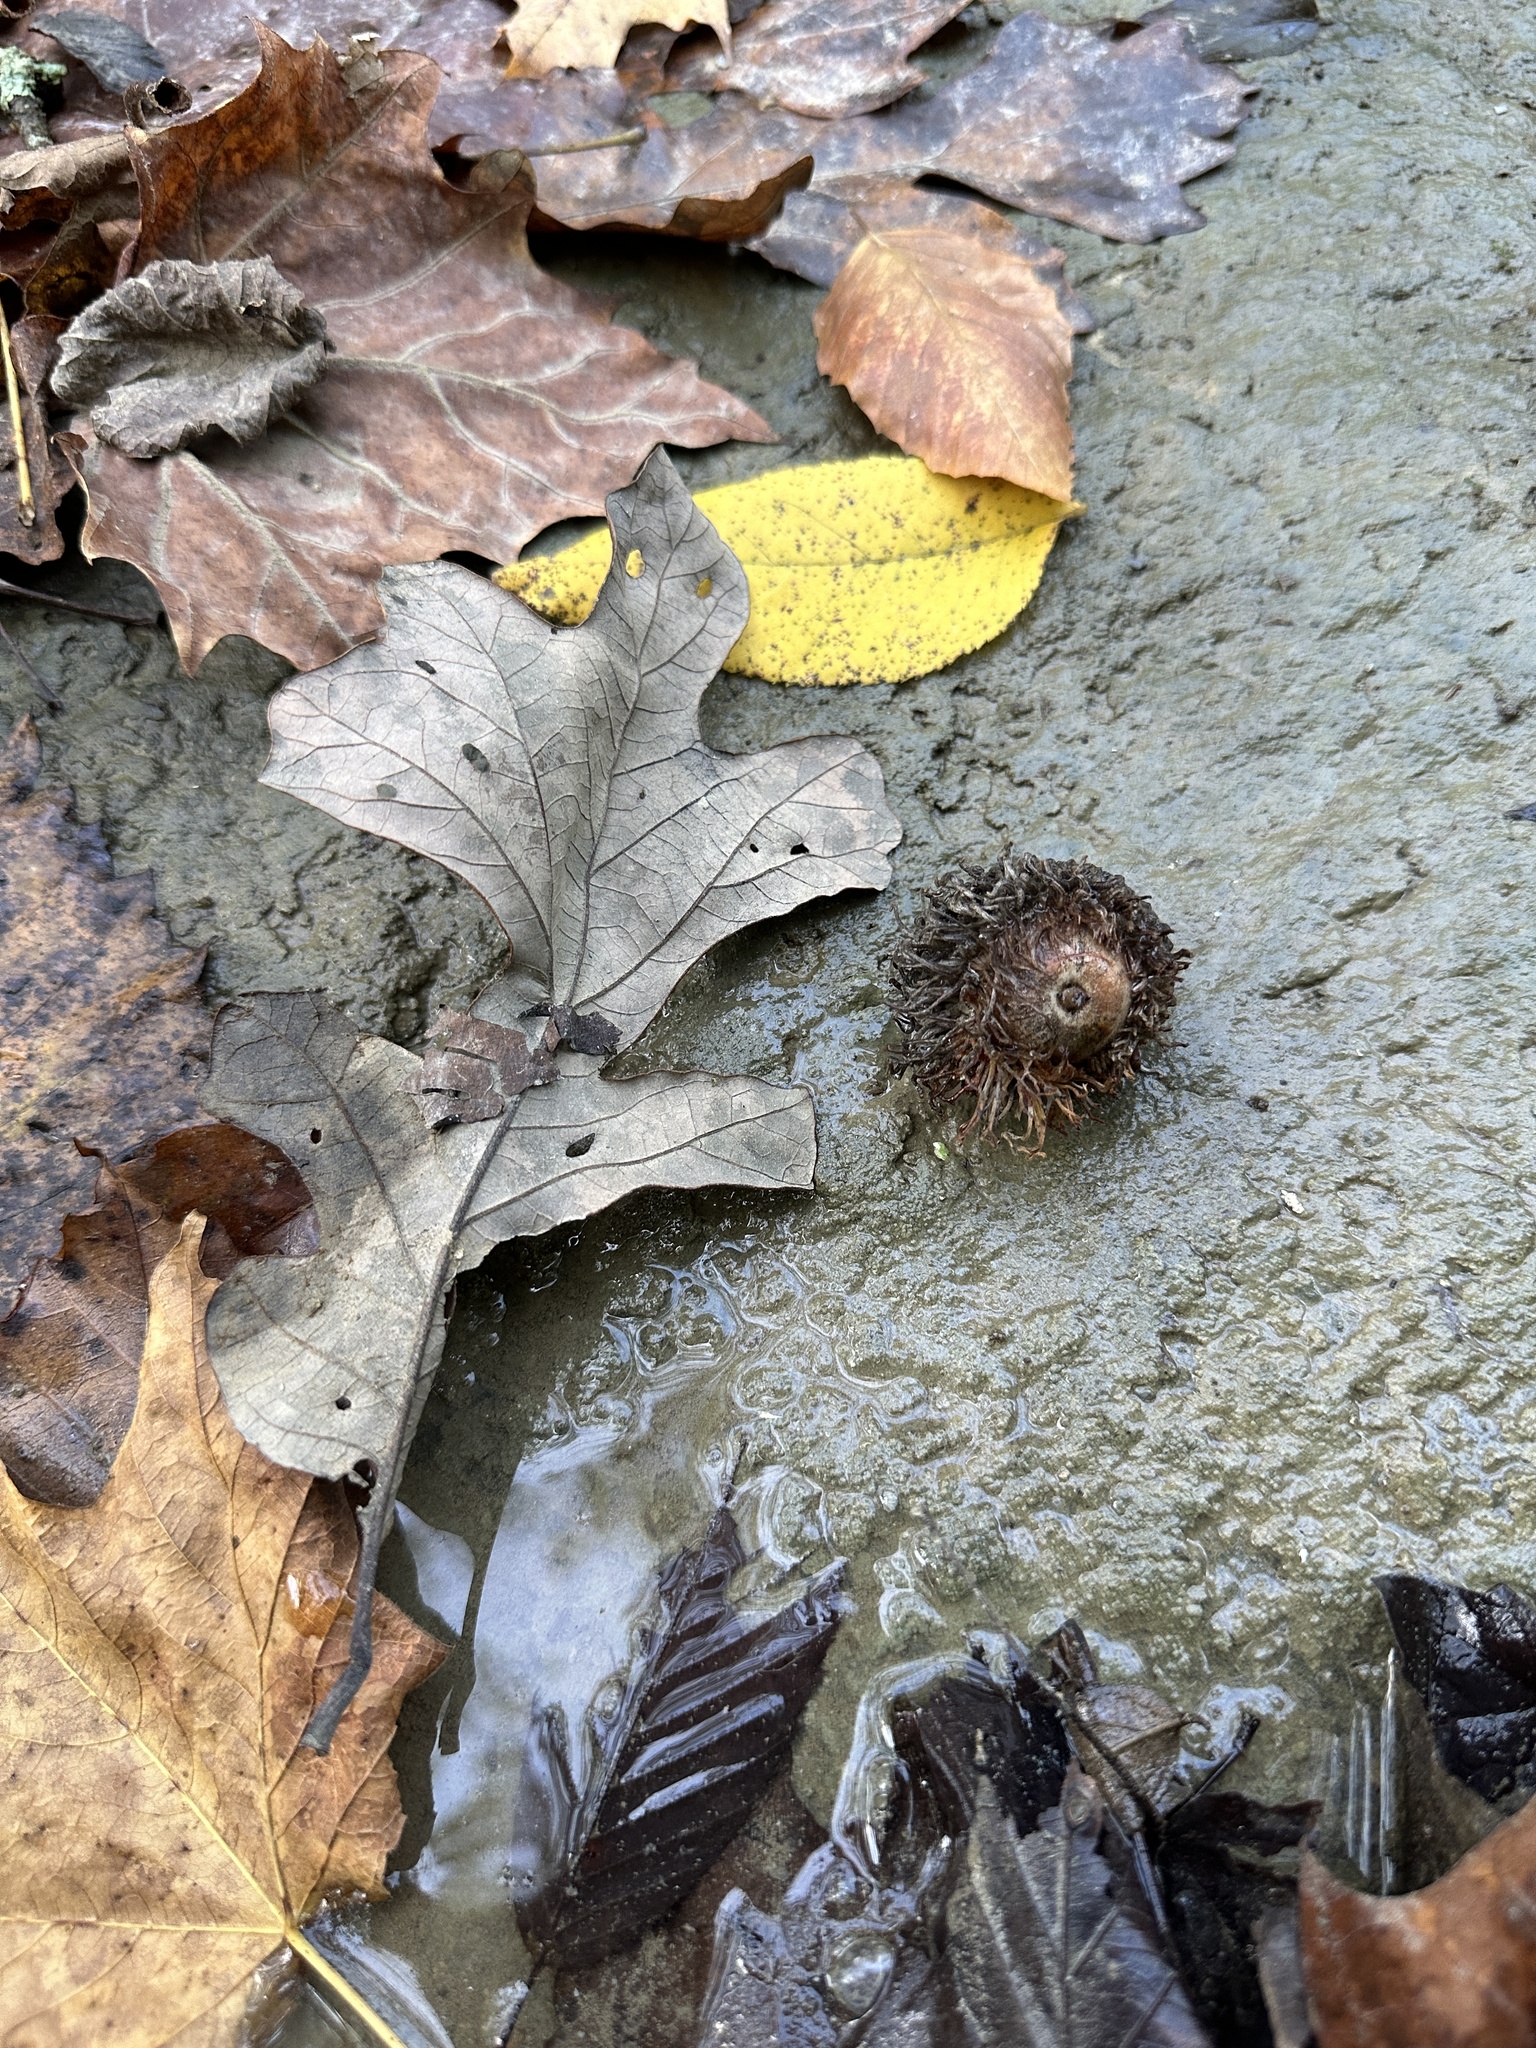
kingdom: Plantae
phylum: Tracheophyta
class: Magnoliopsida
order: Fagales
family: Fagaceae
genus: Quercus
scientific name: Quercus macrocarpa
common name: Bur oak
